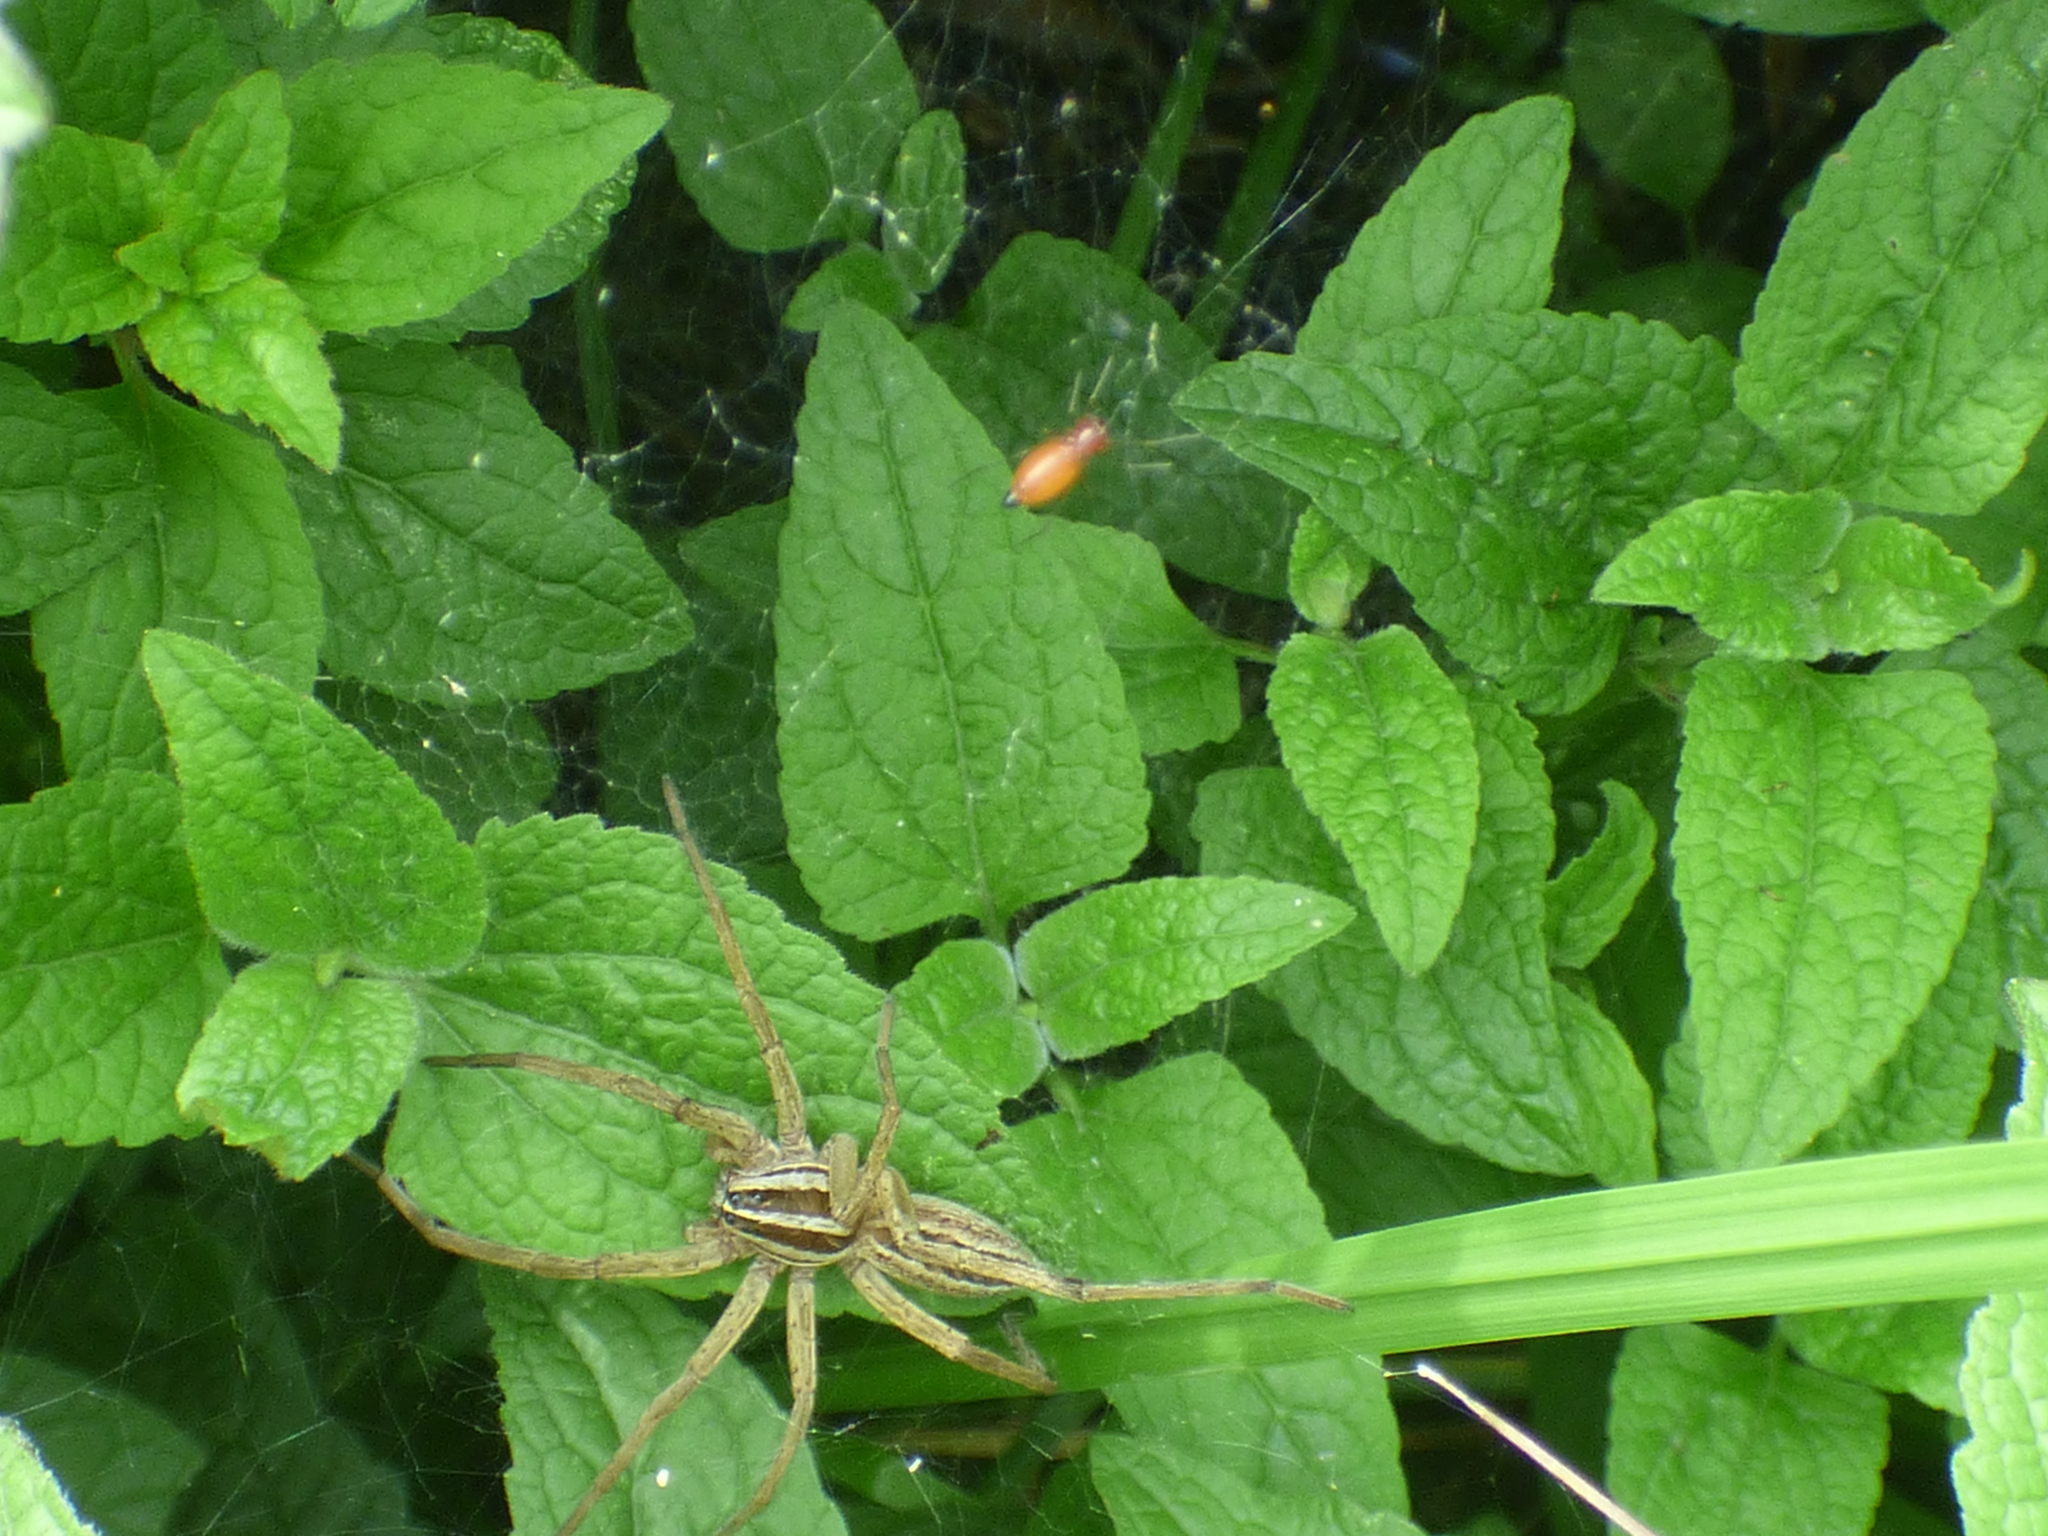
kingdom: Animalia
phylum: Arthropoda
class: Arachnida
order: Araneae
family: Lycosidae
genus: Rabidosa
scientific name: Rabidosa rabida
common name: Rabid wolf spider
